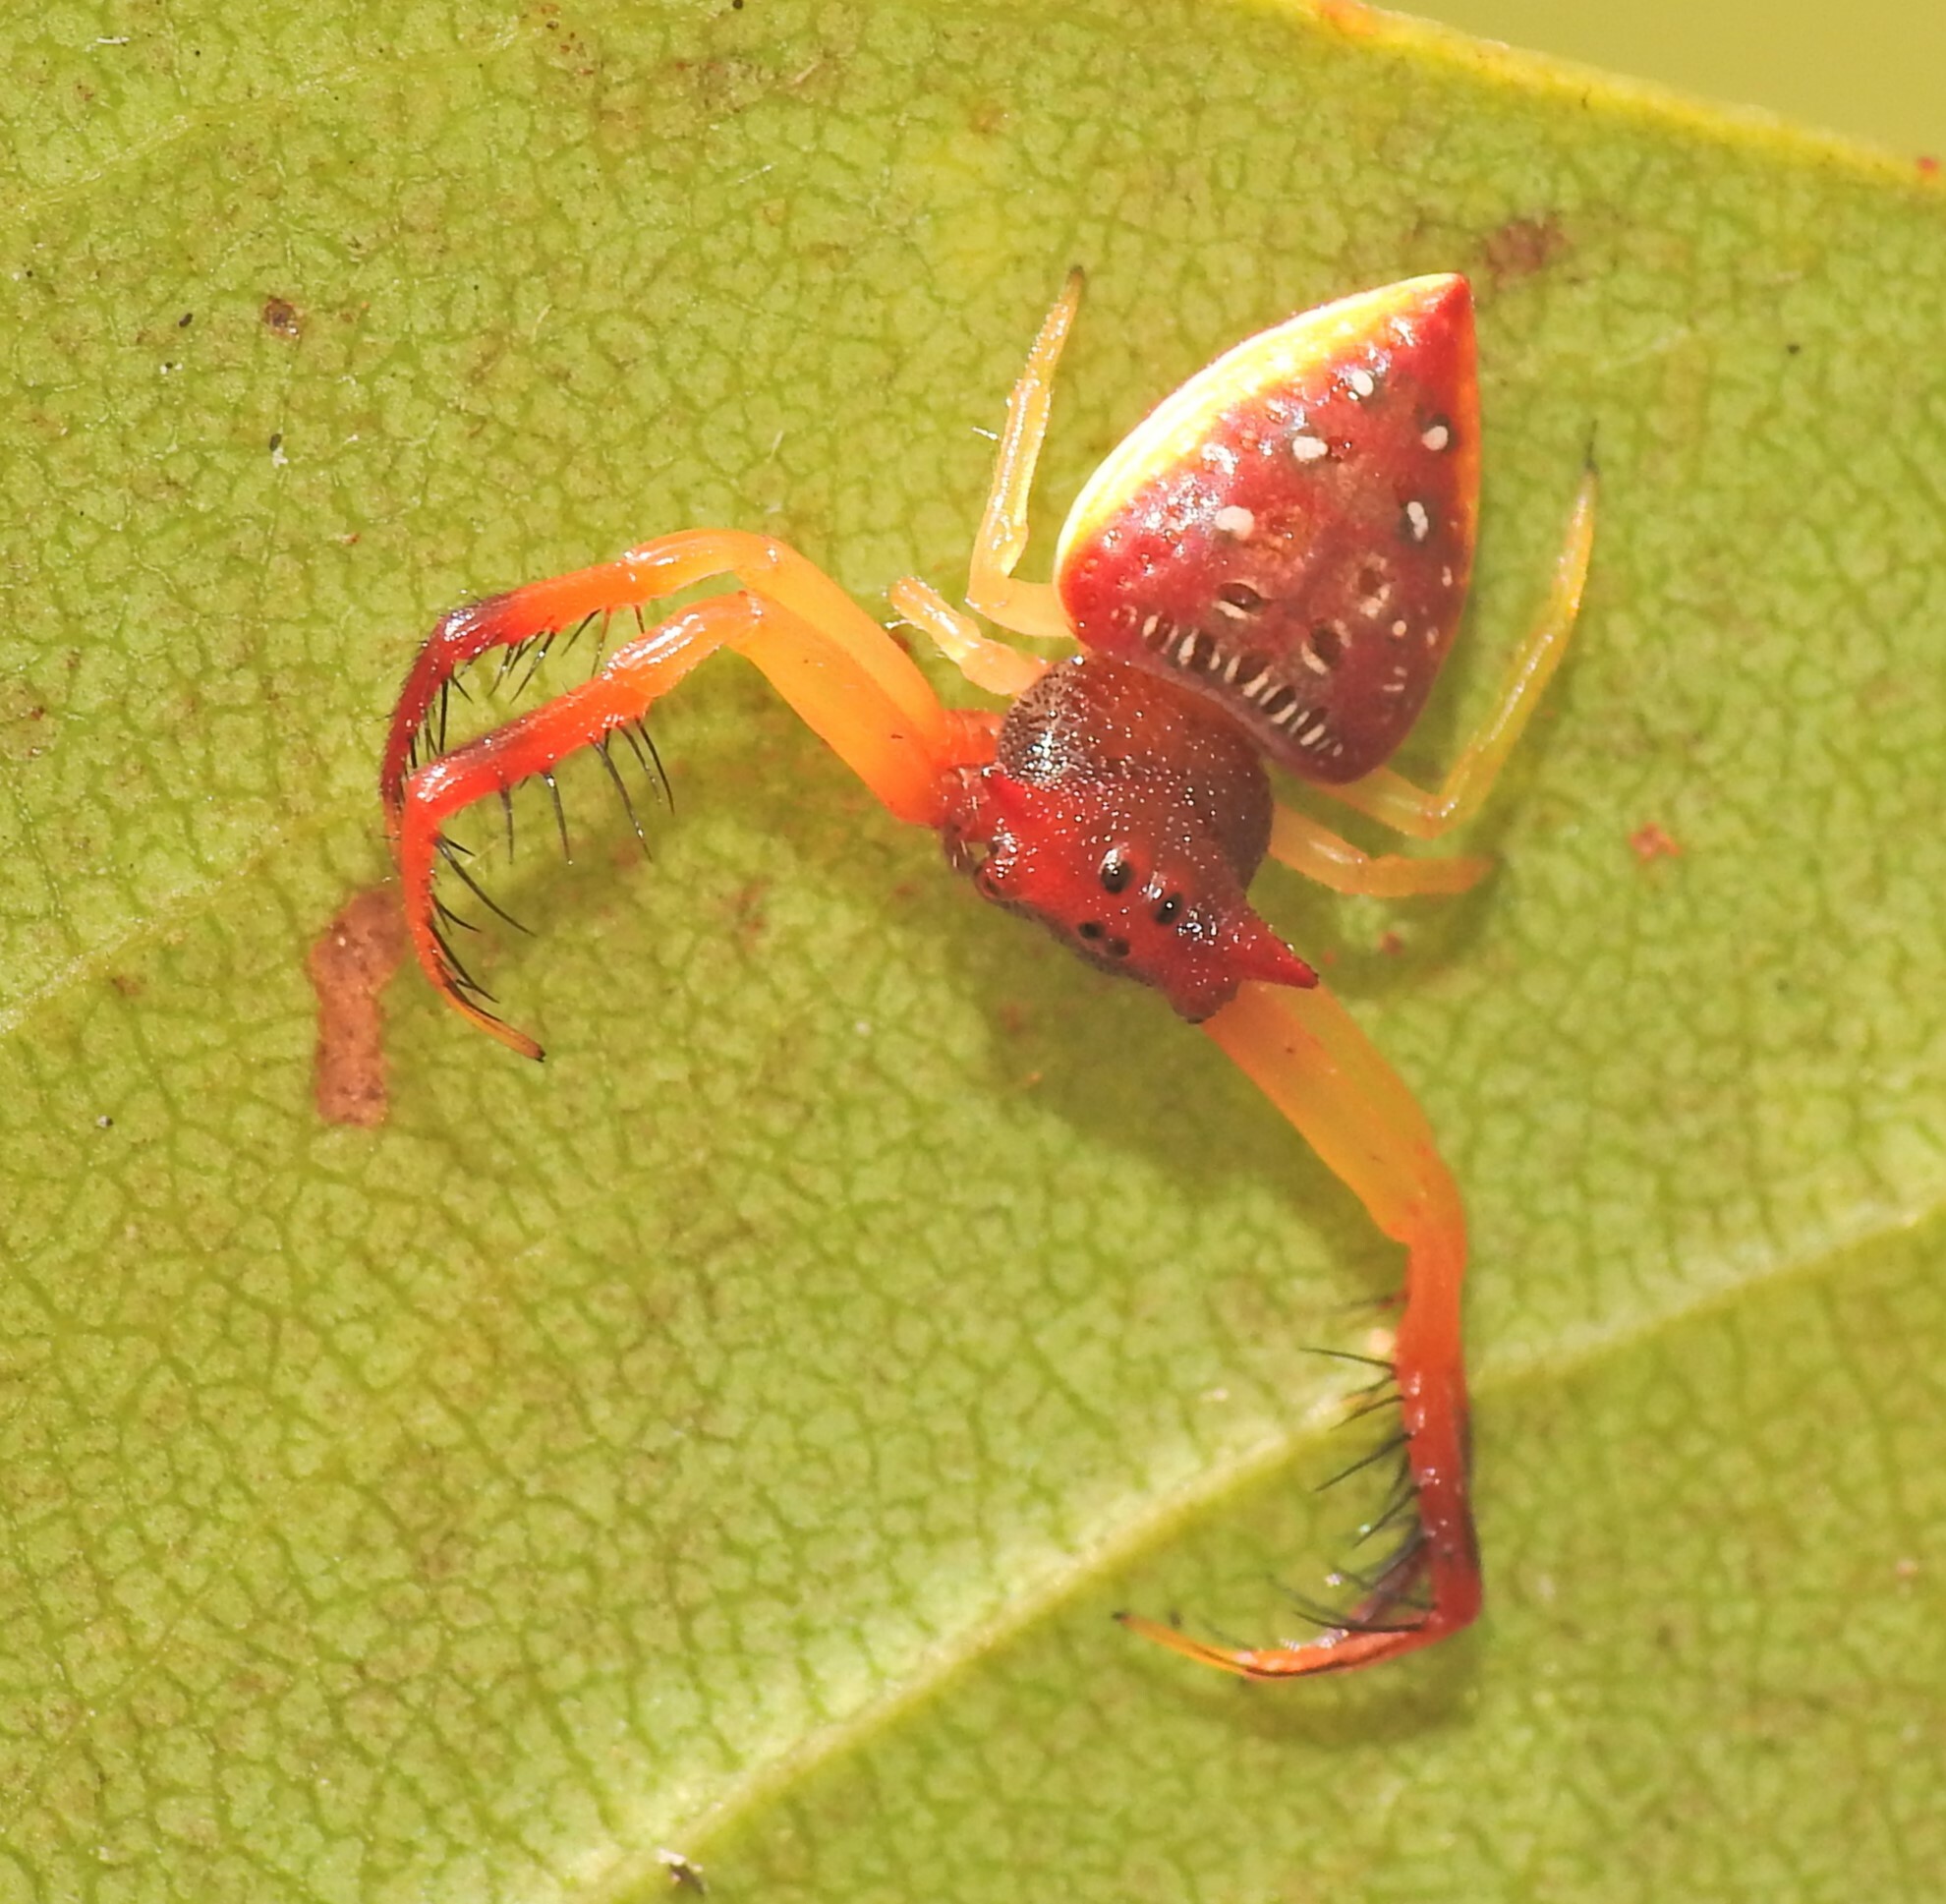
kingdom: Animalia
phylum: Arthropoda
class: Arachnida
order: Araneae
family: Arkyidae
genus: Arkys
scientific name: Arkys cornutus
